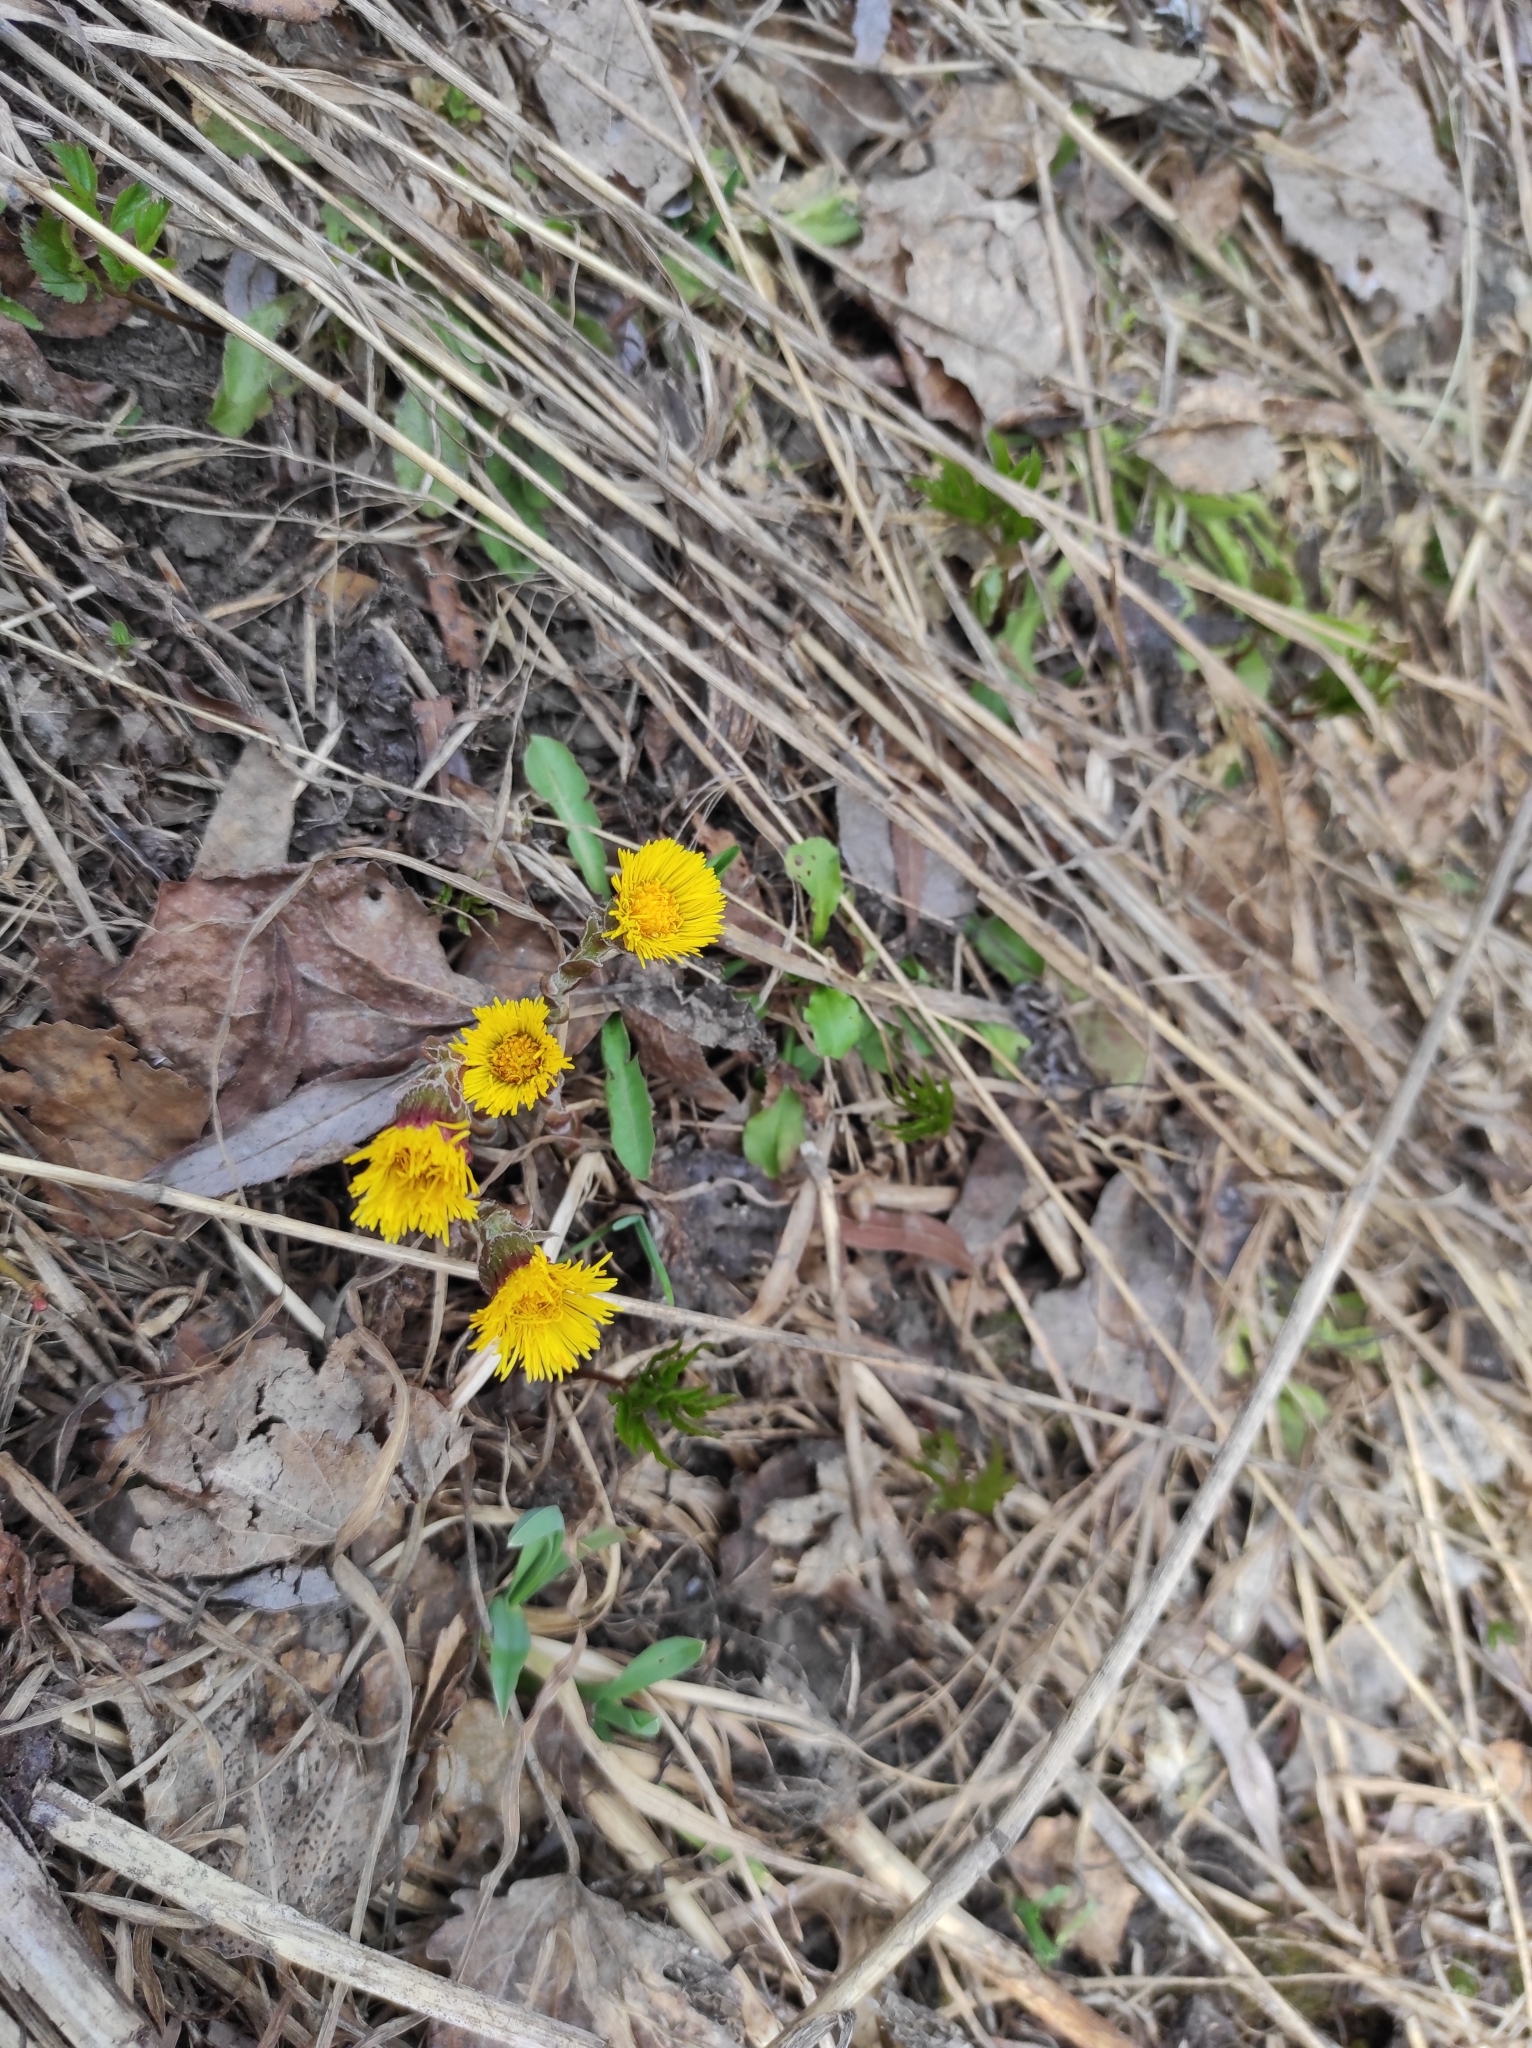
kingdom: Plantae
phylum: Tracheophyta
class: Magnoliopsida
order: Asterales
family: Asteraceae
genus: Tussilago
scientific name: Tussilago farfara
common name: Coltsfoot
